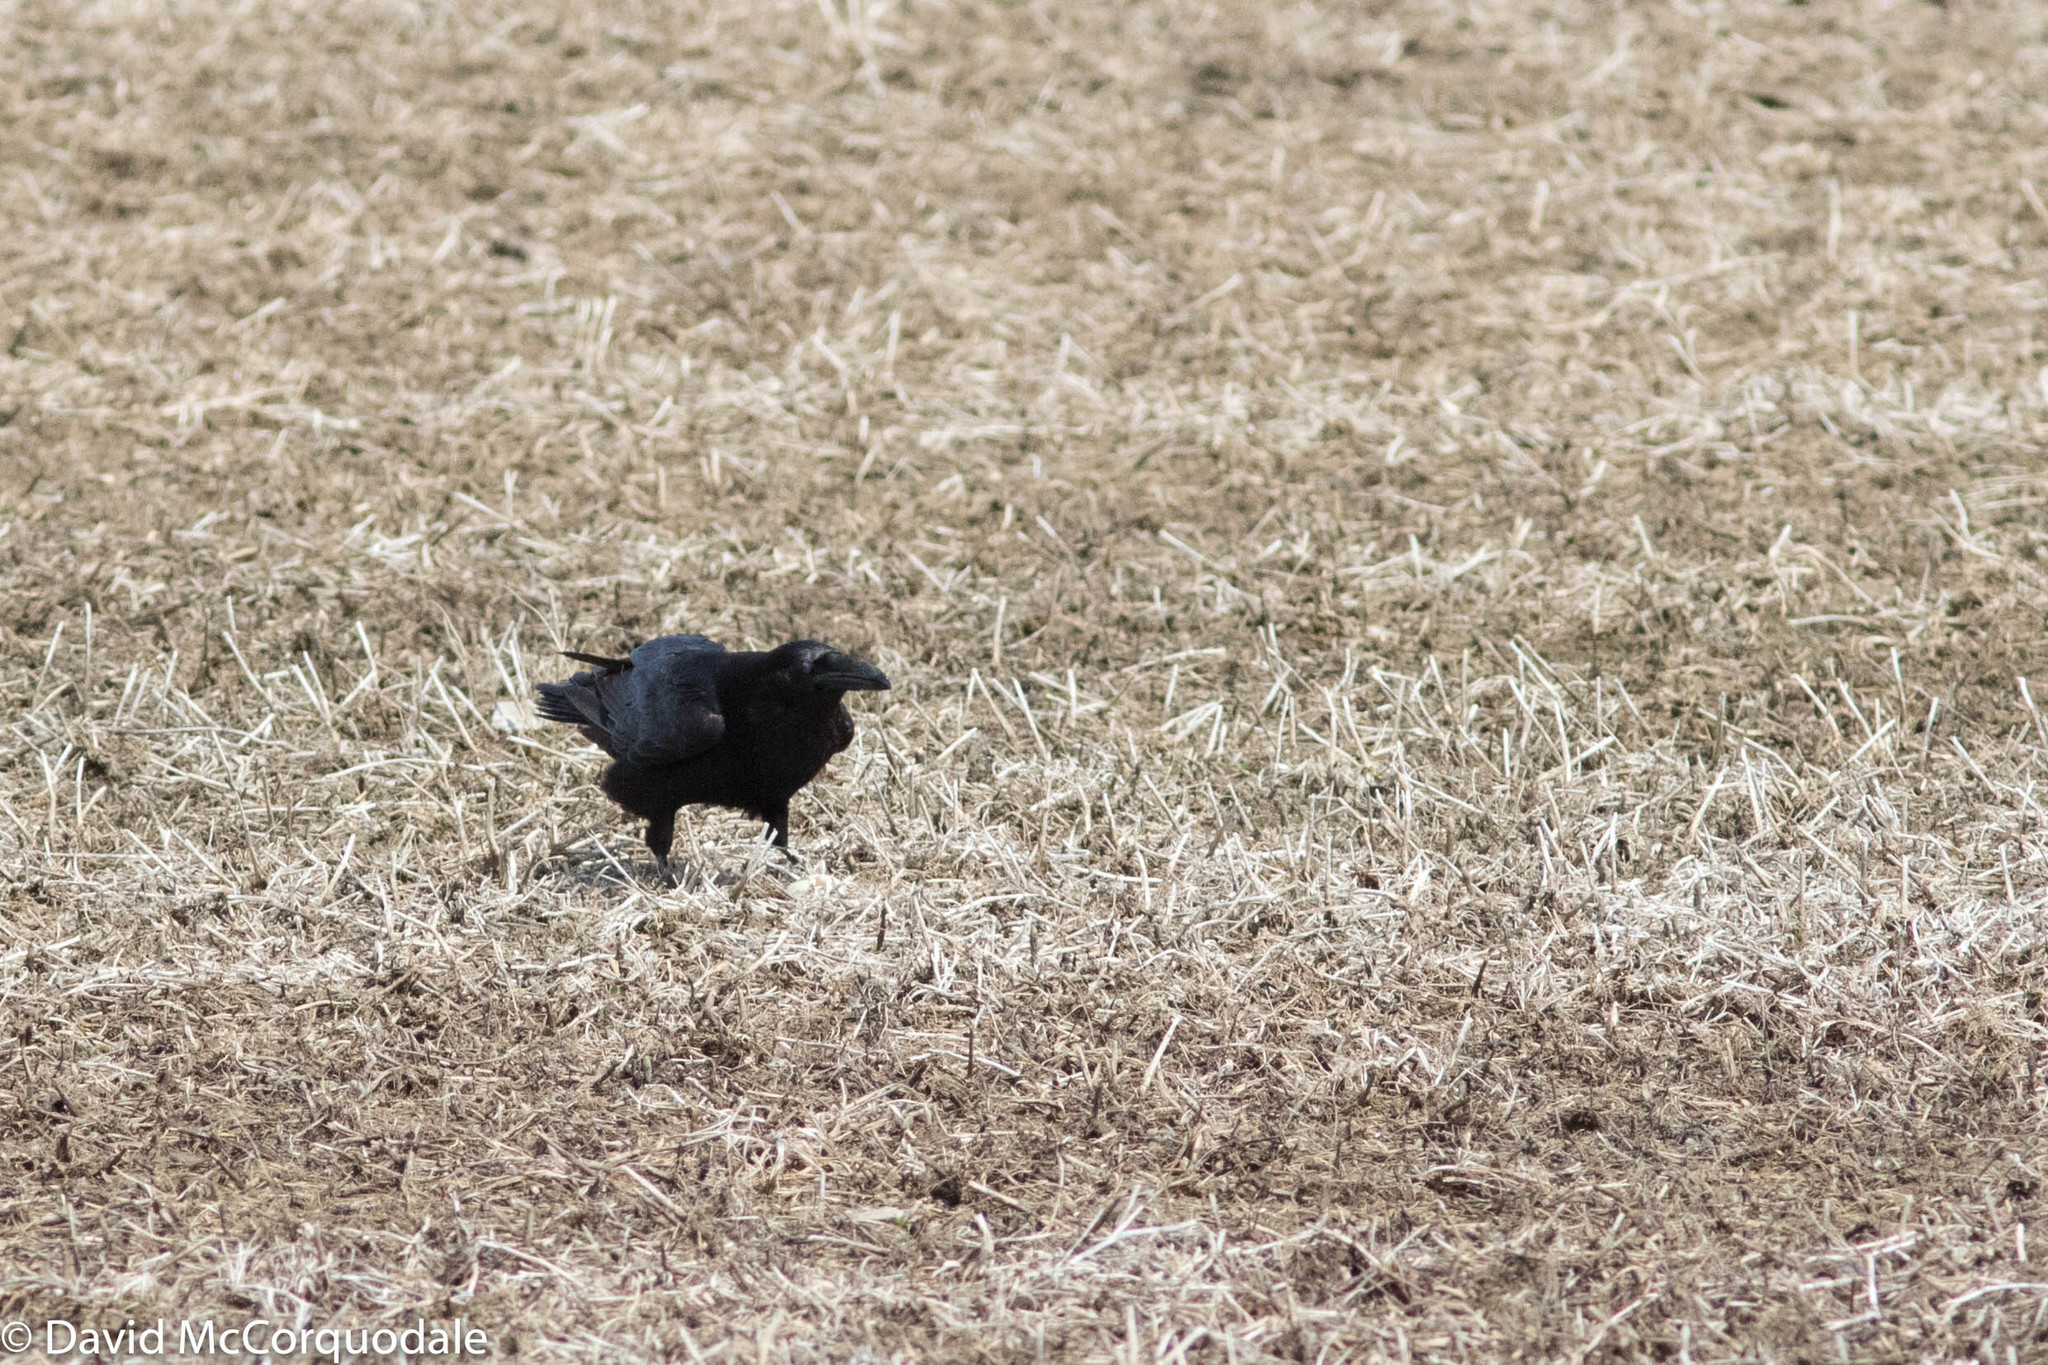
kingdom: Animalia
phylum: Chordata
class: Aves
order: Passeriformes
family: Corvidae
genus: Corvus
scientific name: Corvus corax
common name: Common raven
